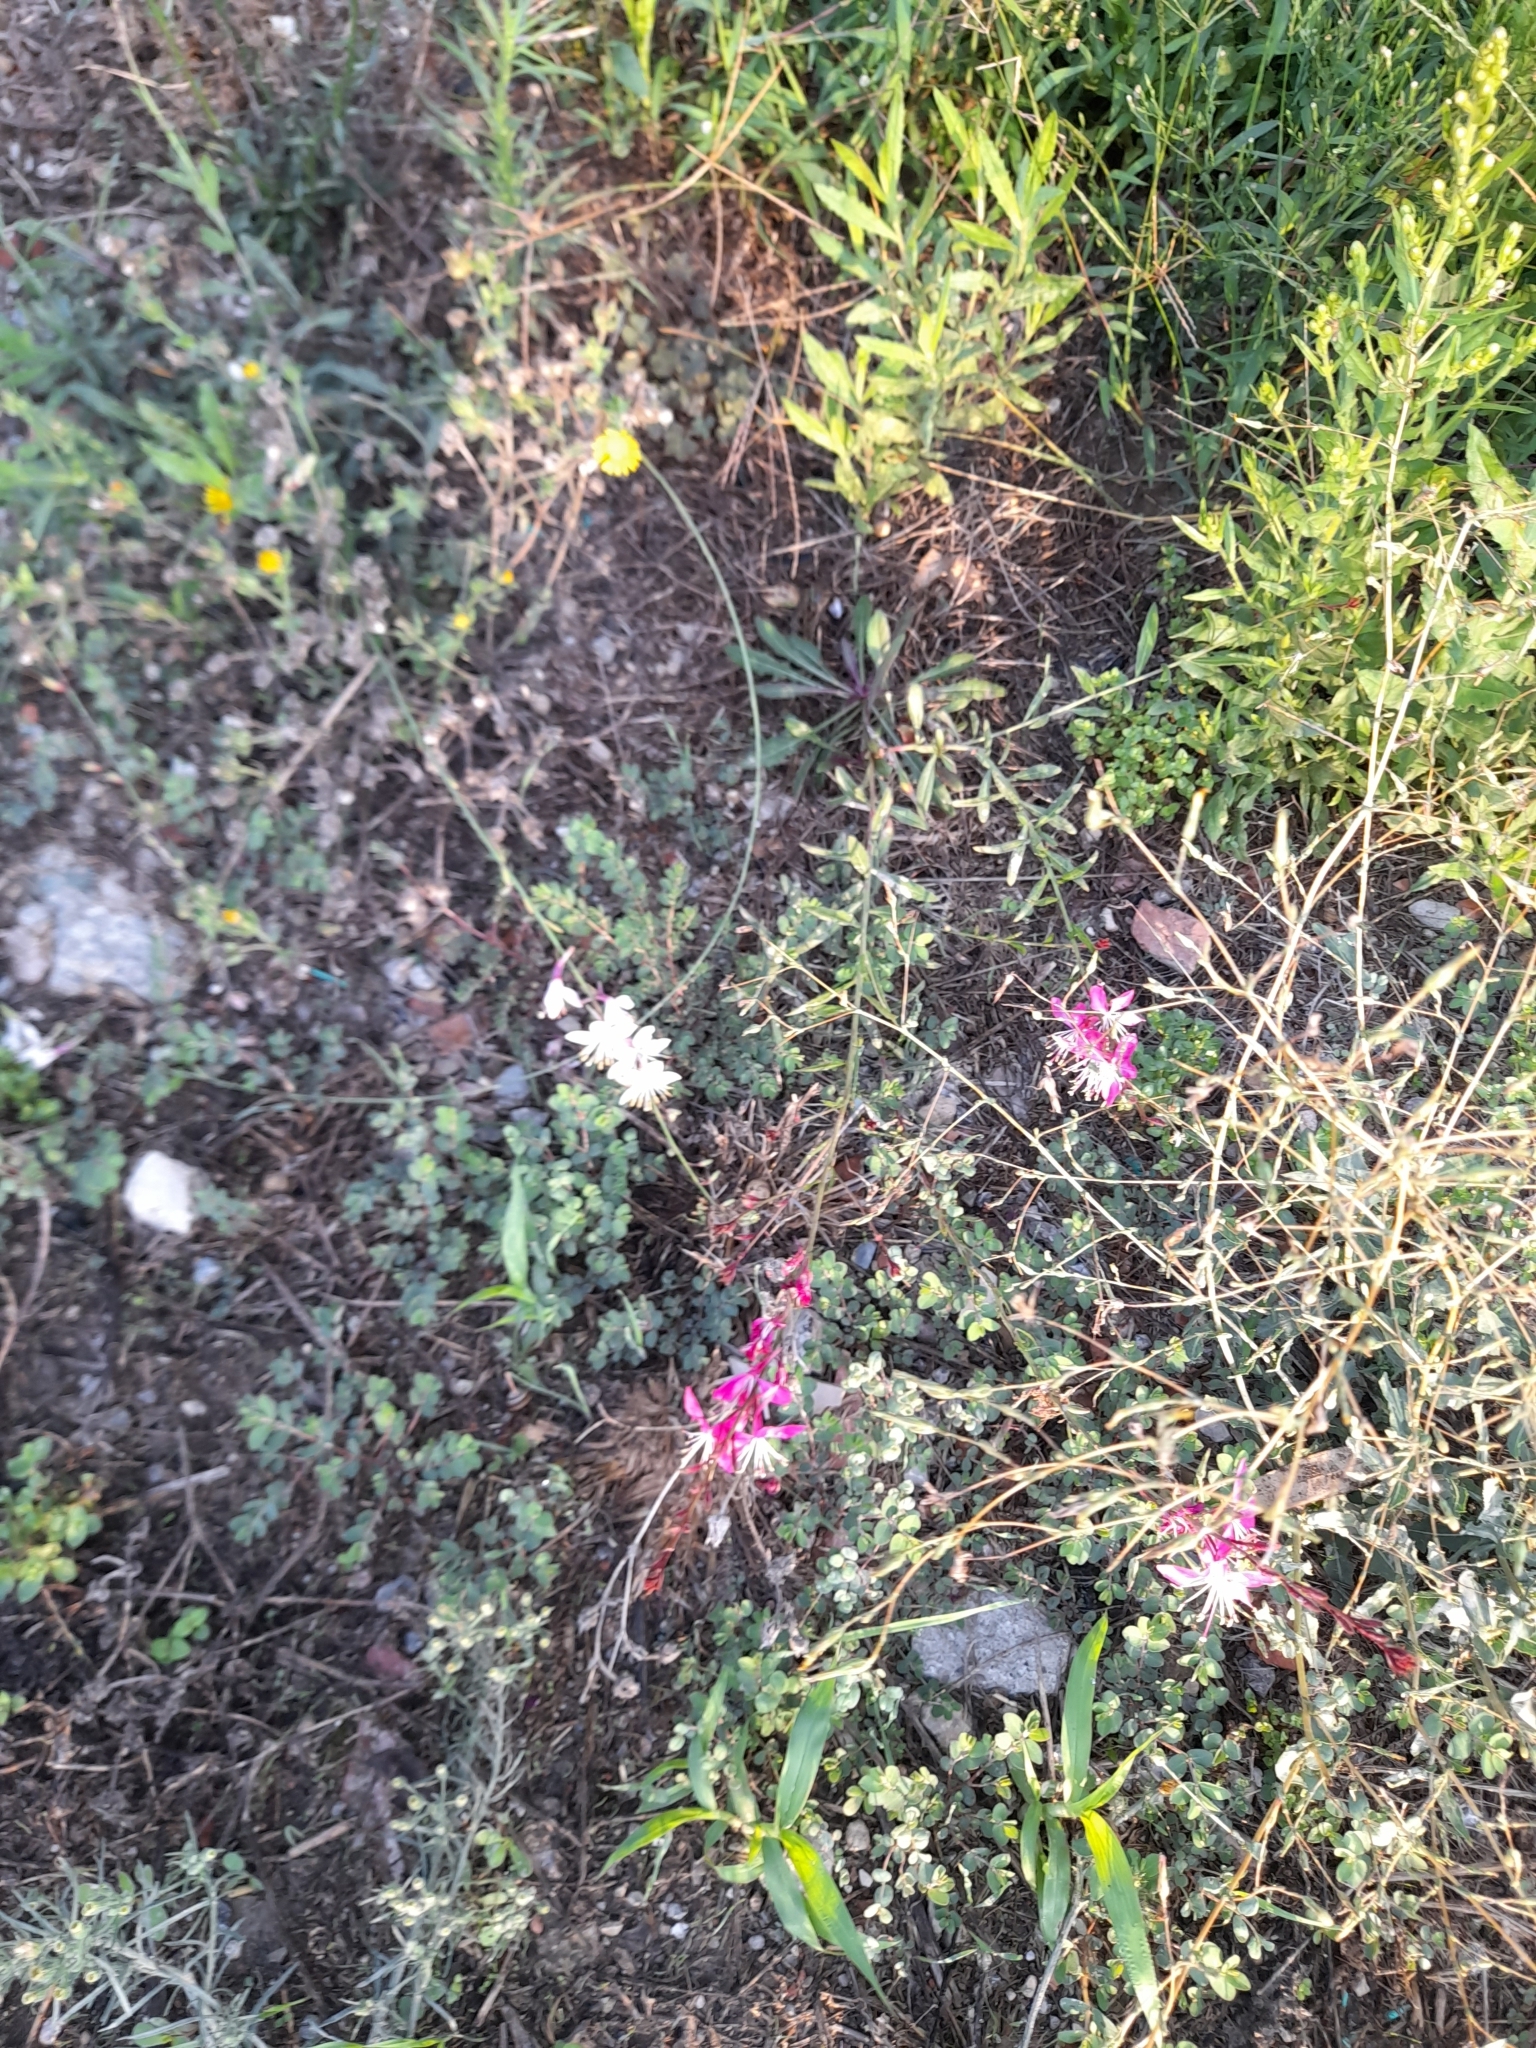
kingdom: Plantae
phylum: Tracheophyta
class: Magnoliopsida
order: Myrtales
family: Onagraceae
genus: Oenothera
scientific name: Oenothera lindheimeri
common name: Lindheimer's beeblossom
